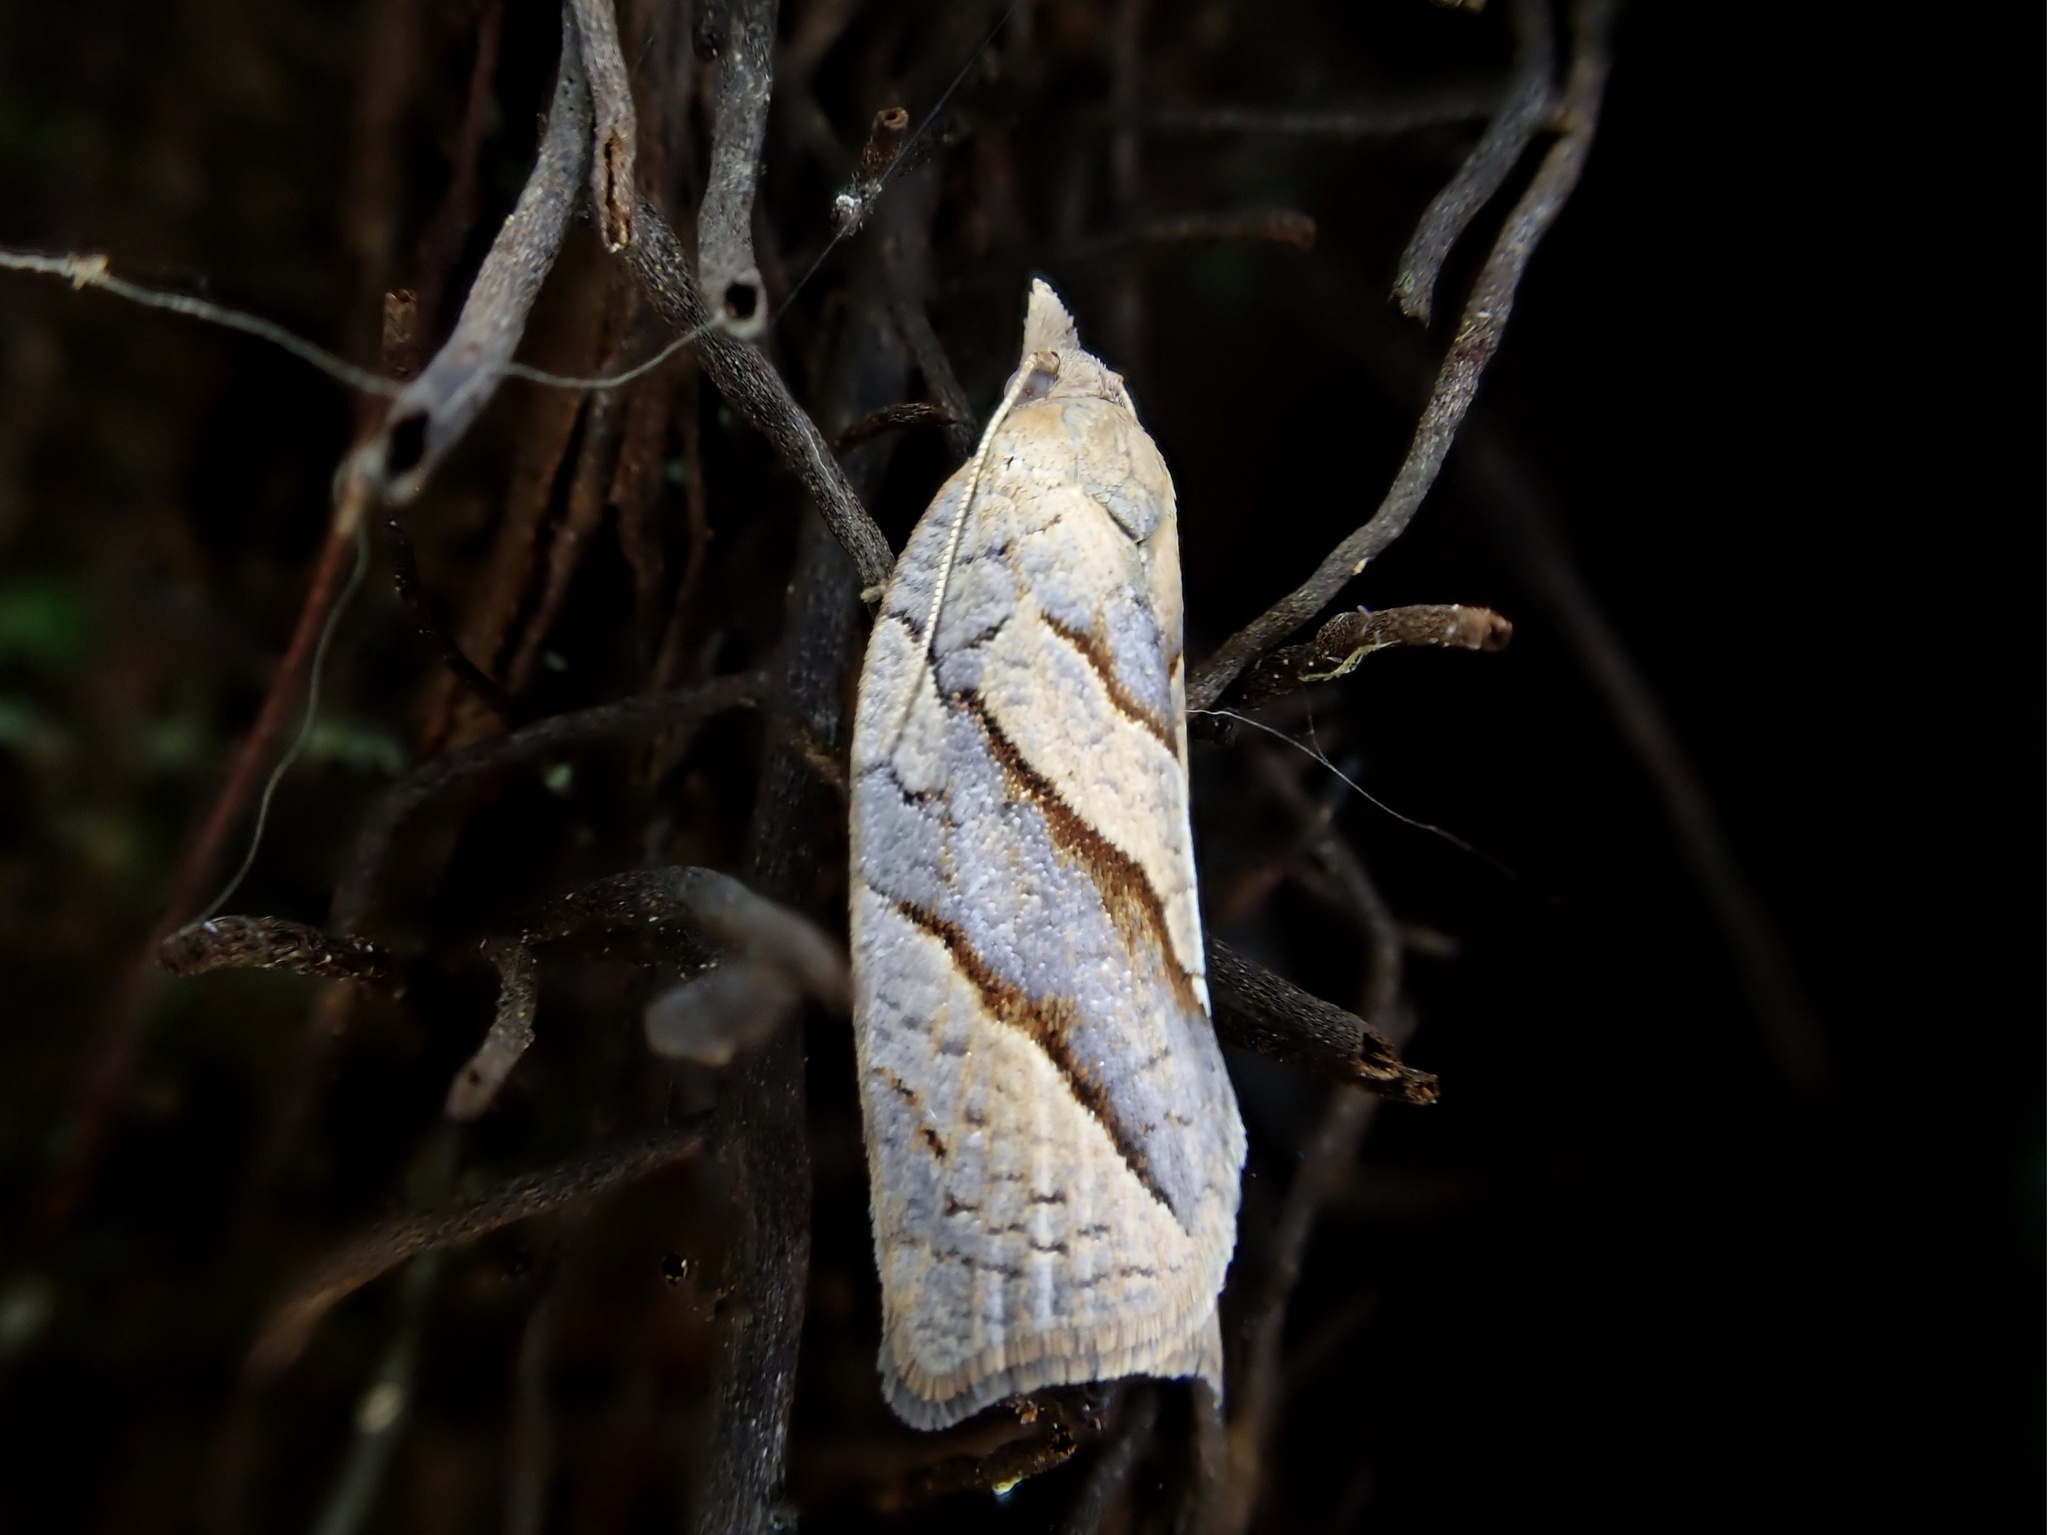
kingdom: Animalia
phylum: Arthropoda
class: Insecta
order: Lepidoptera
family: Tortricidae
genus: Apoctena
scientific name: Apoctena orthocopa
